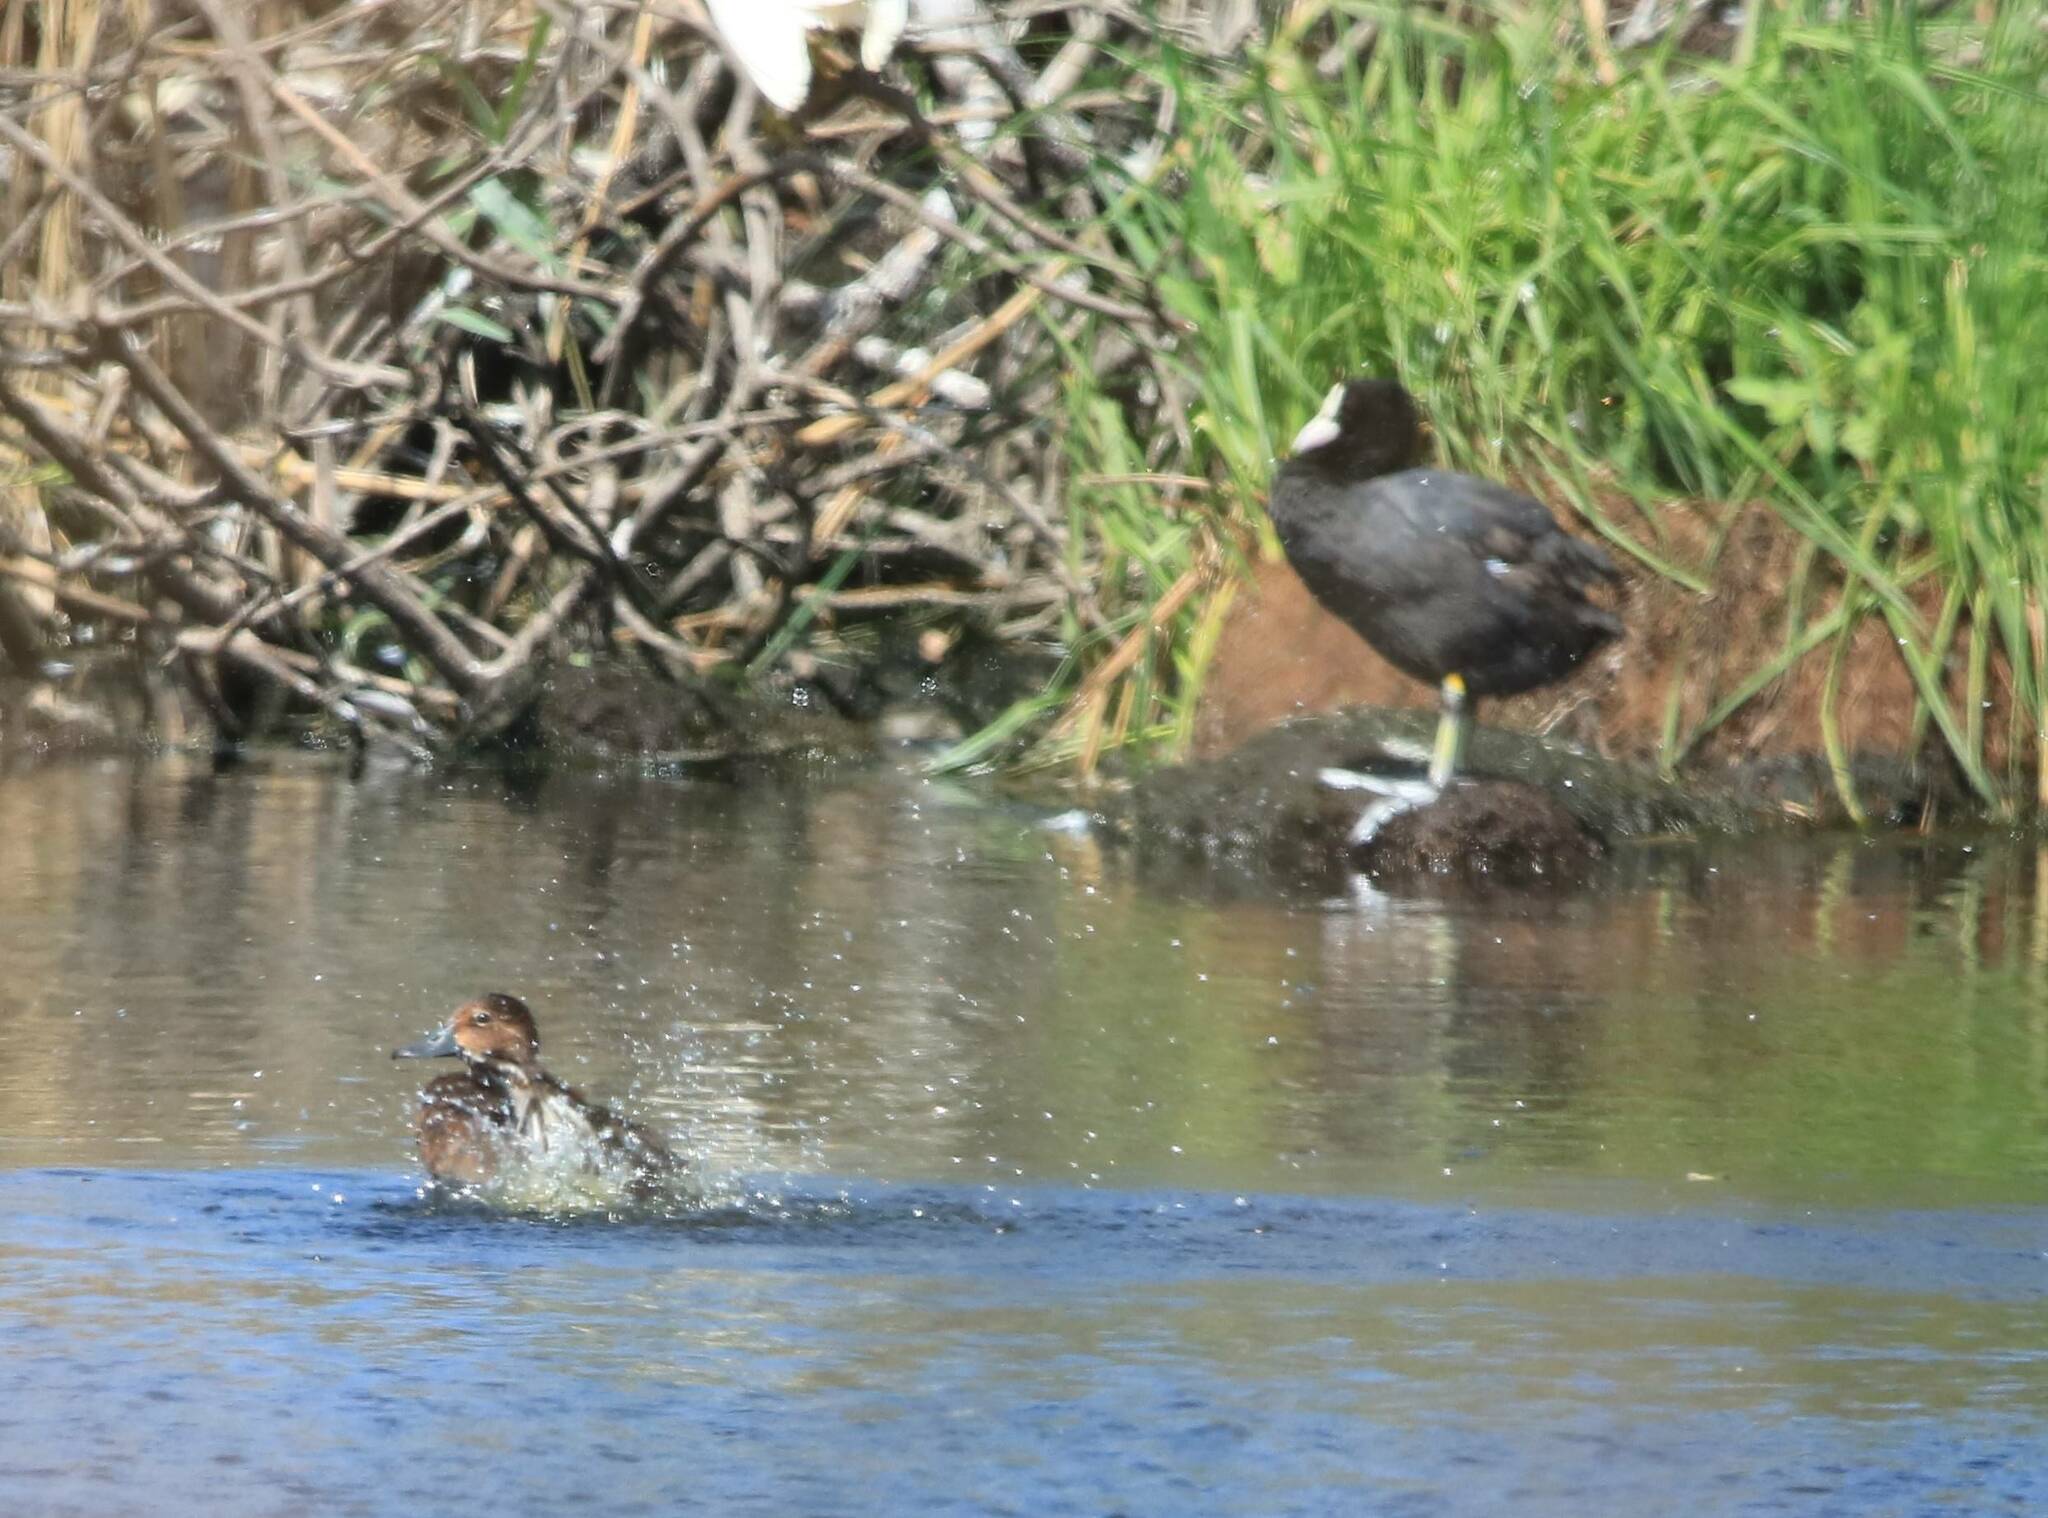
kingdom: Animalia
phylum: Chordata
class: Aves
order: Gruiformes
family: Rallidae
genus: Fulica
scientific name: Fulica atra
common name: Eurasian coot
